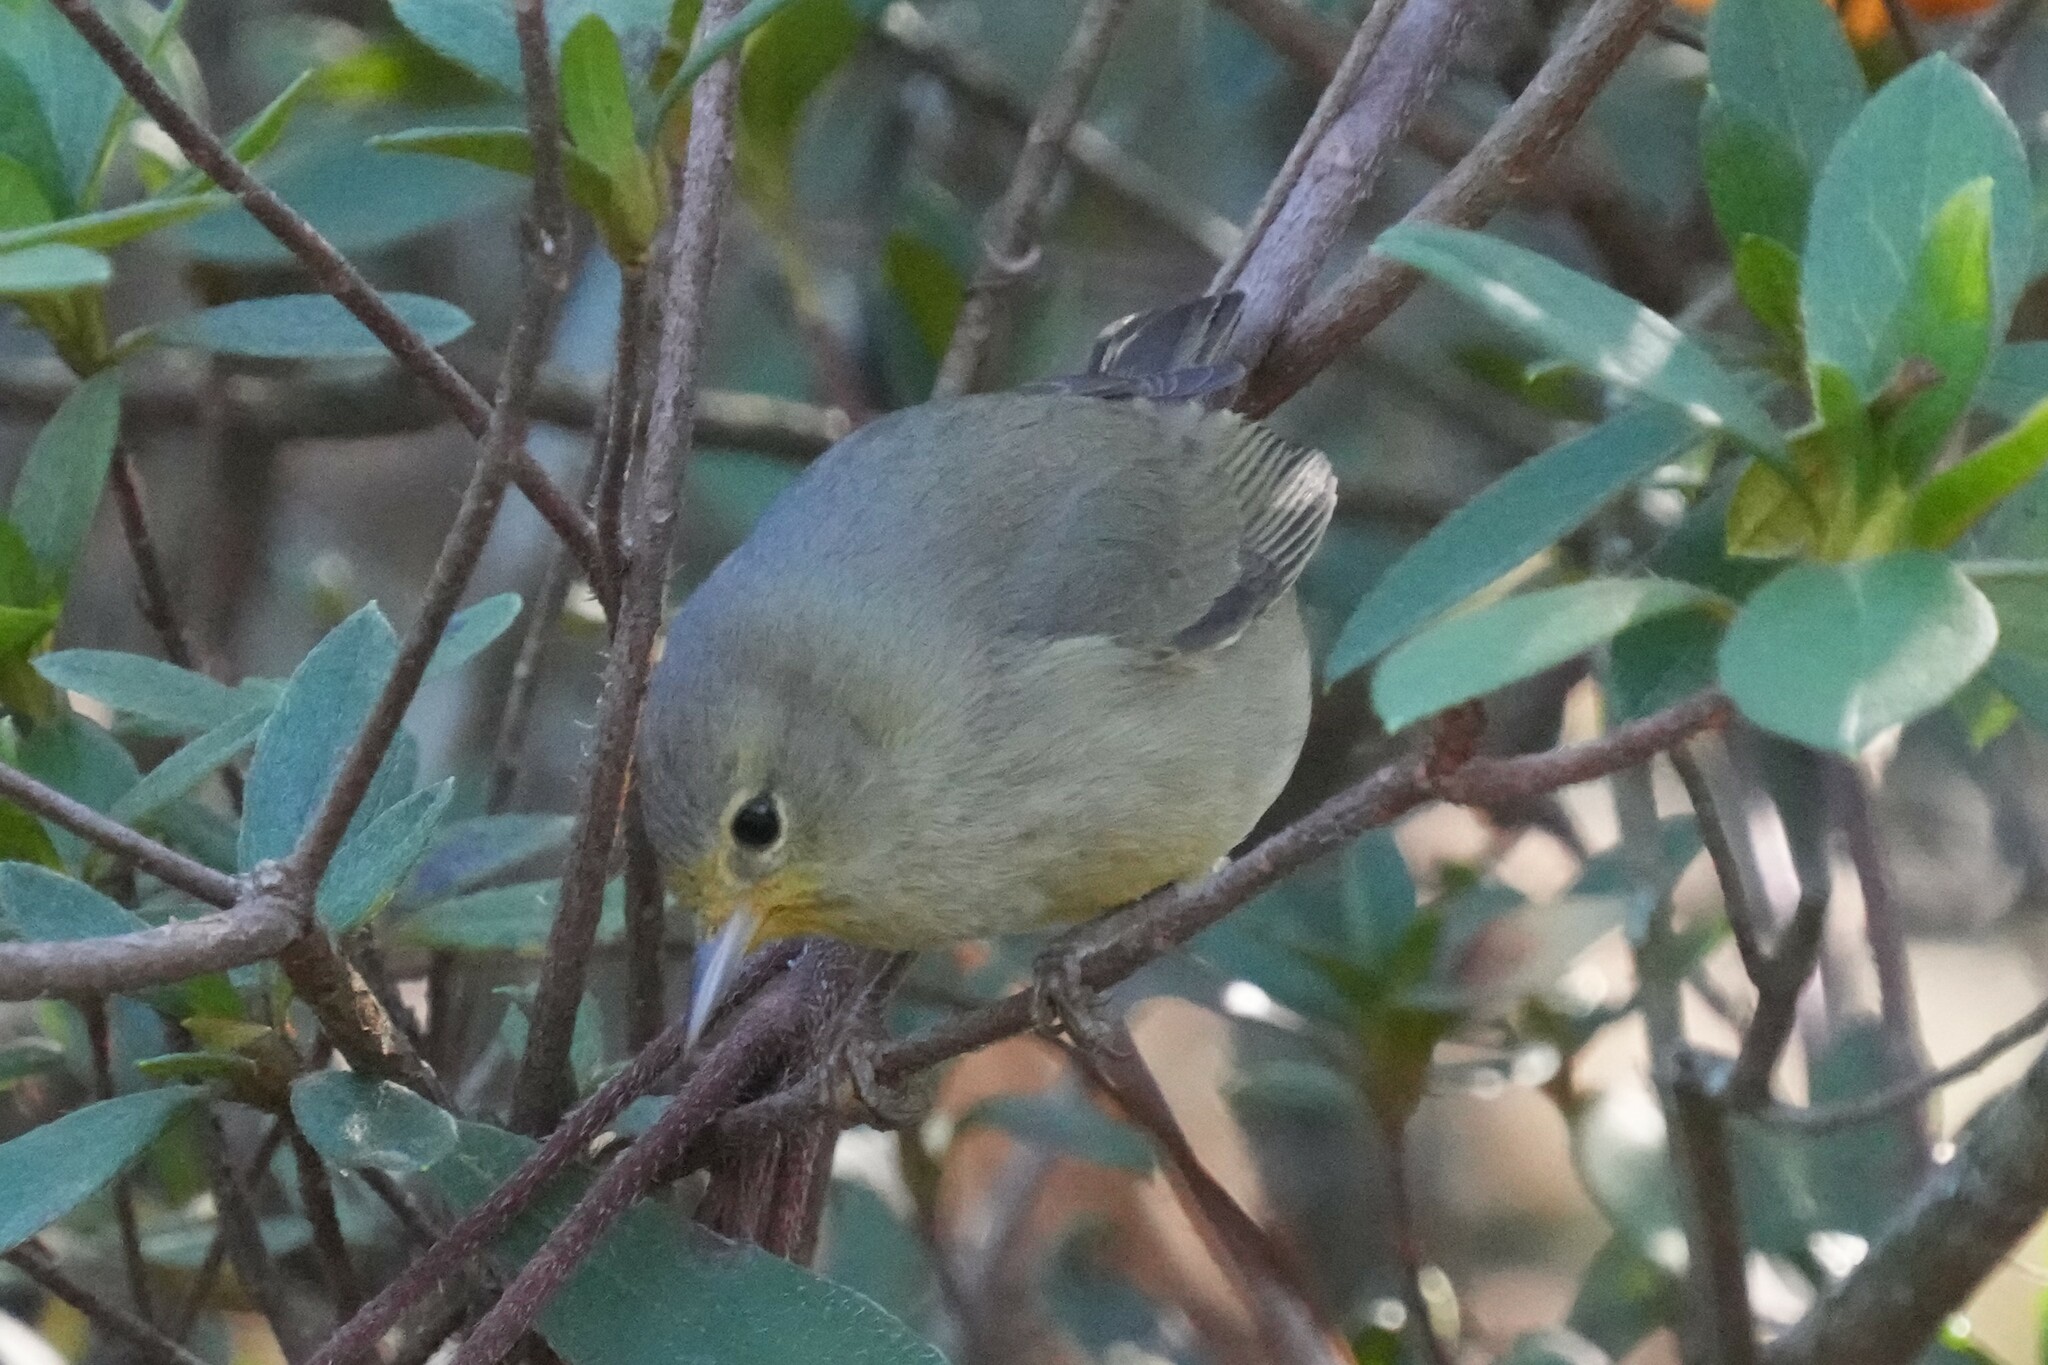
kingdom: Animalia
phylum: Chordata
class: Aves
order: Passeriformes
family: Parulidae
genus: Leiothlypis
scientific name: Leiothlypis celata
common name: Orange-crowned warbler
